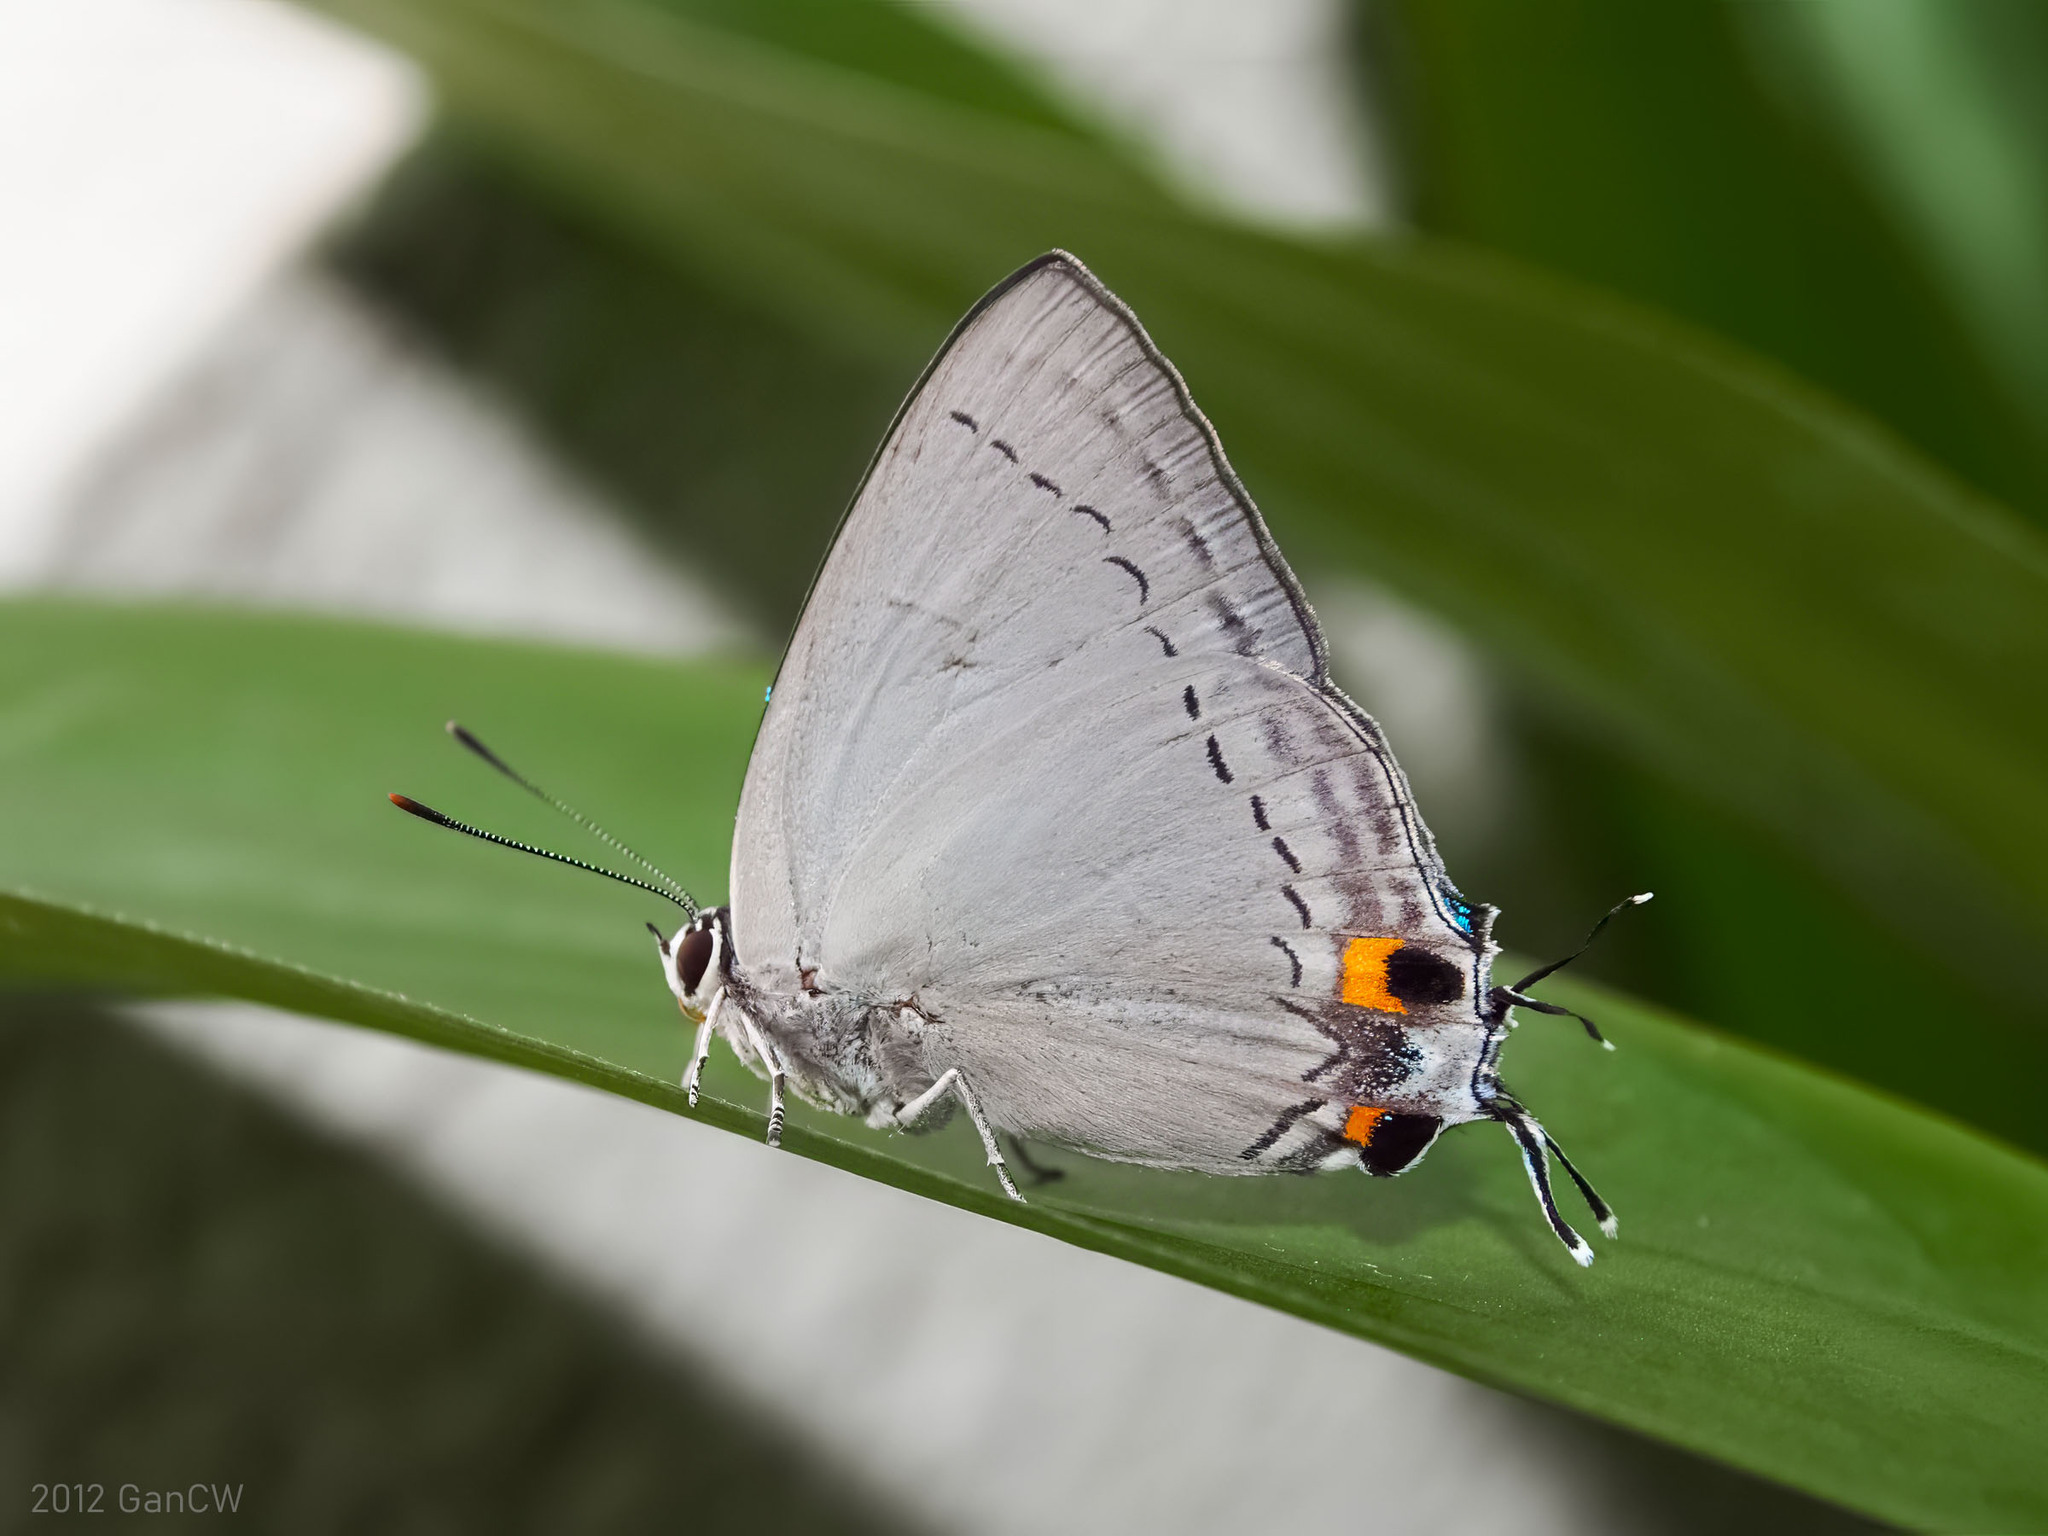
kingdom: Animalia
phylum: Arthropoda
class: Insecta
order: Lepidoptera
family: Lycaenidae
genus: Tajuria
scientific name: Tajuria cippus
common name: Peacock royal
